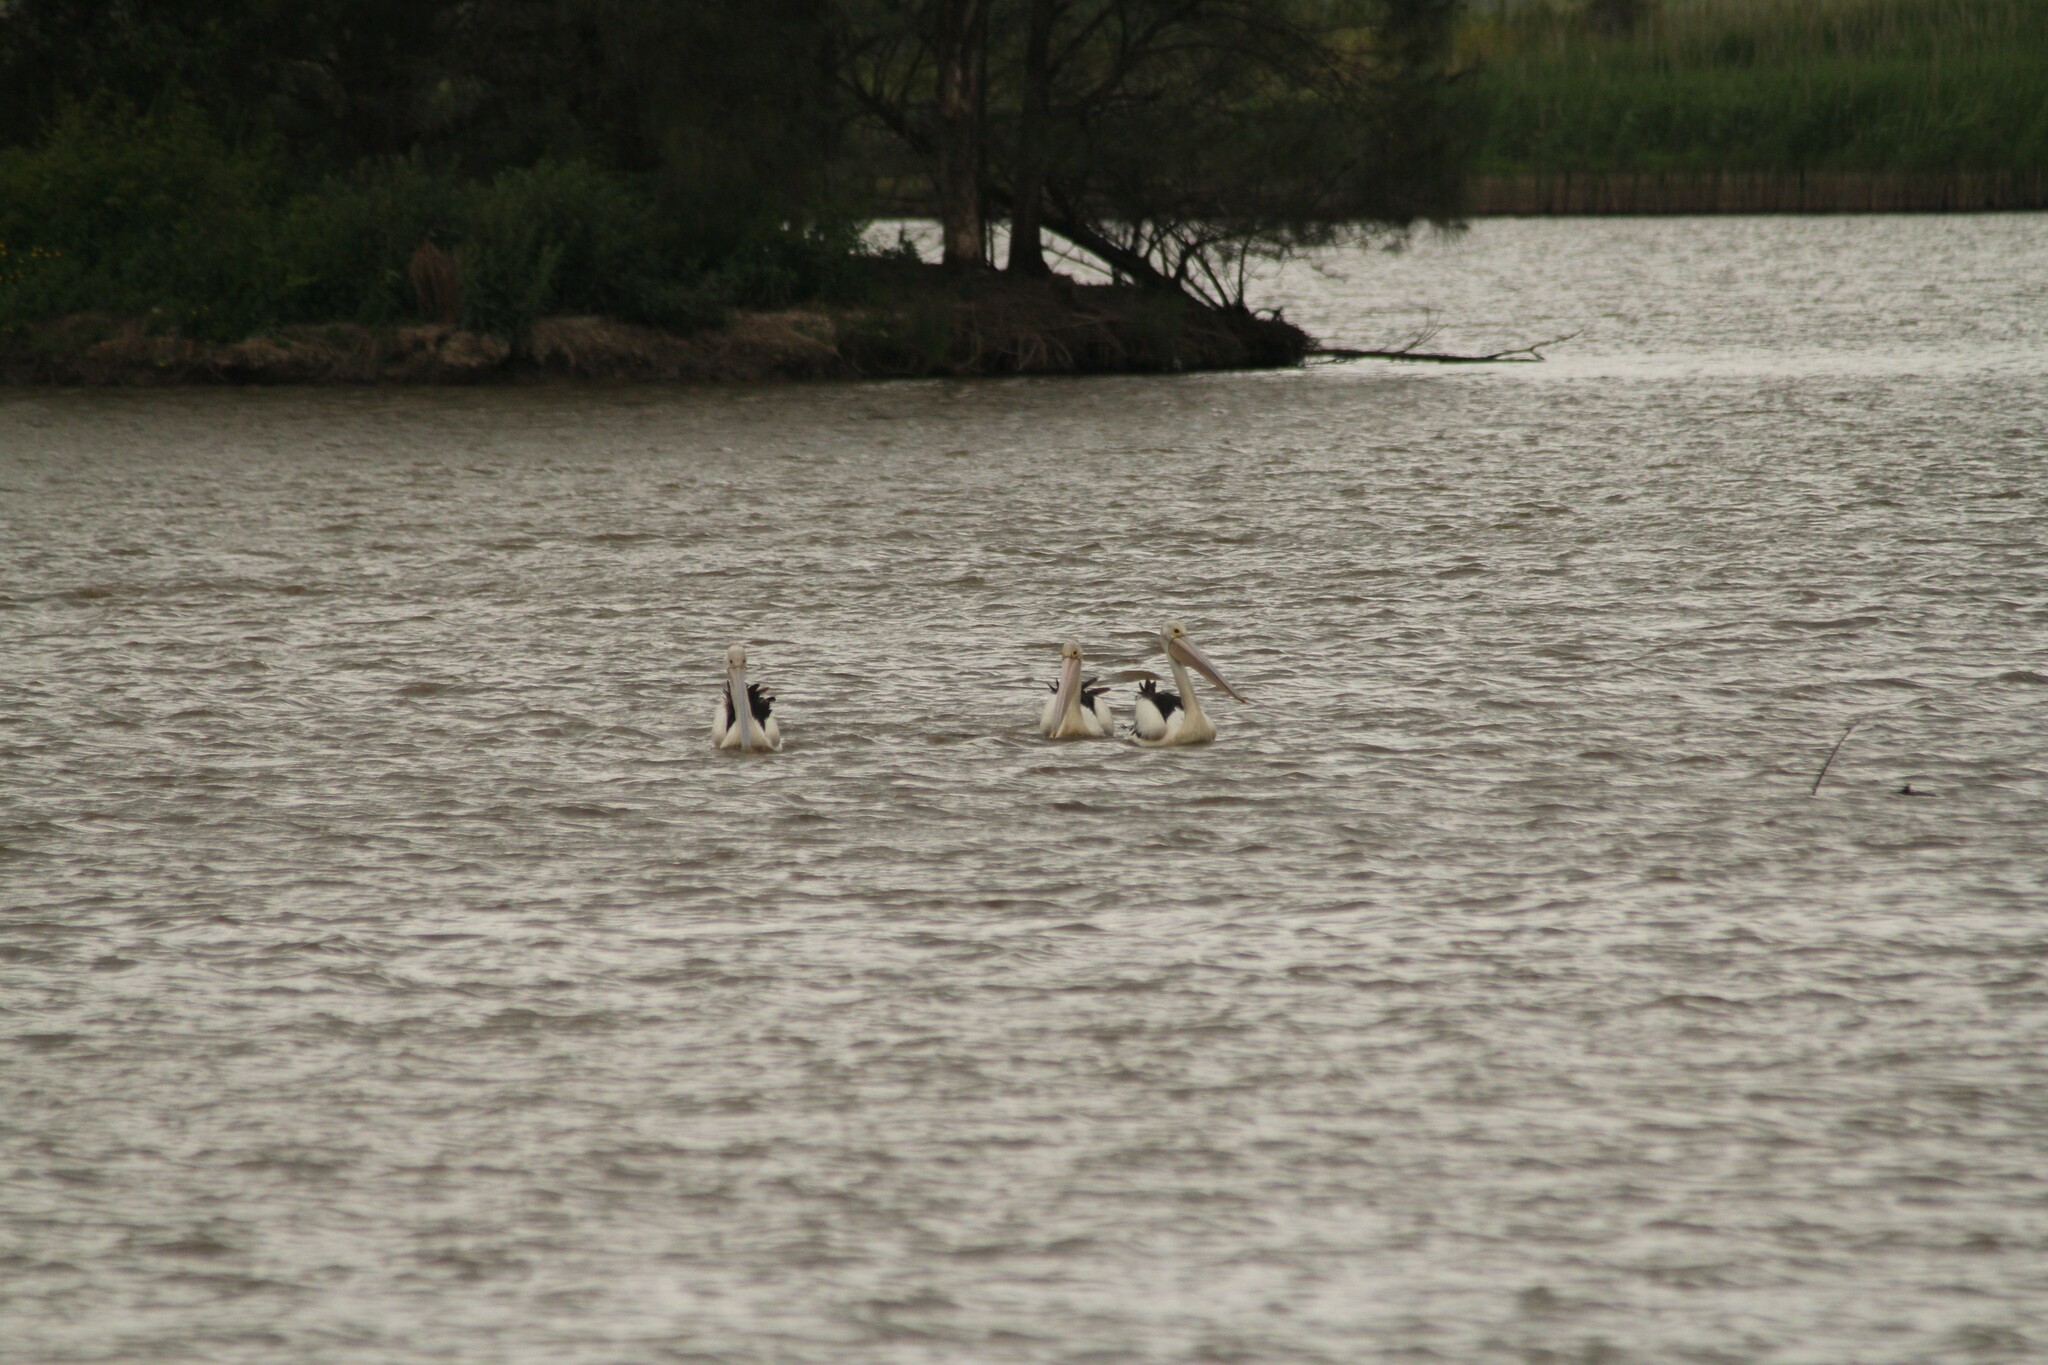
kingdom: Animalia
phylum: Chordata
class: Aves
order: Pelecaniformes
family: Pelecanidae
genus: Pelecanus
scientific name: Pelecanus conspicillatus
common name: Australian pelican
